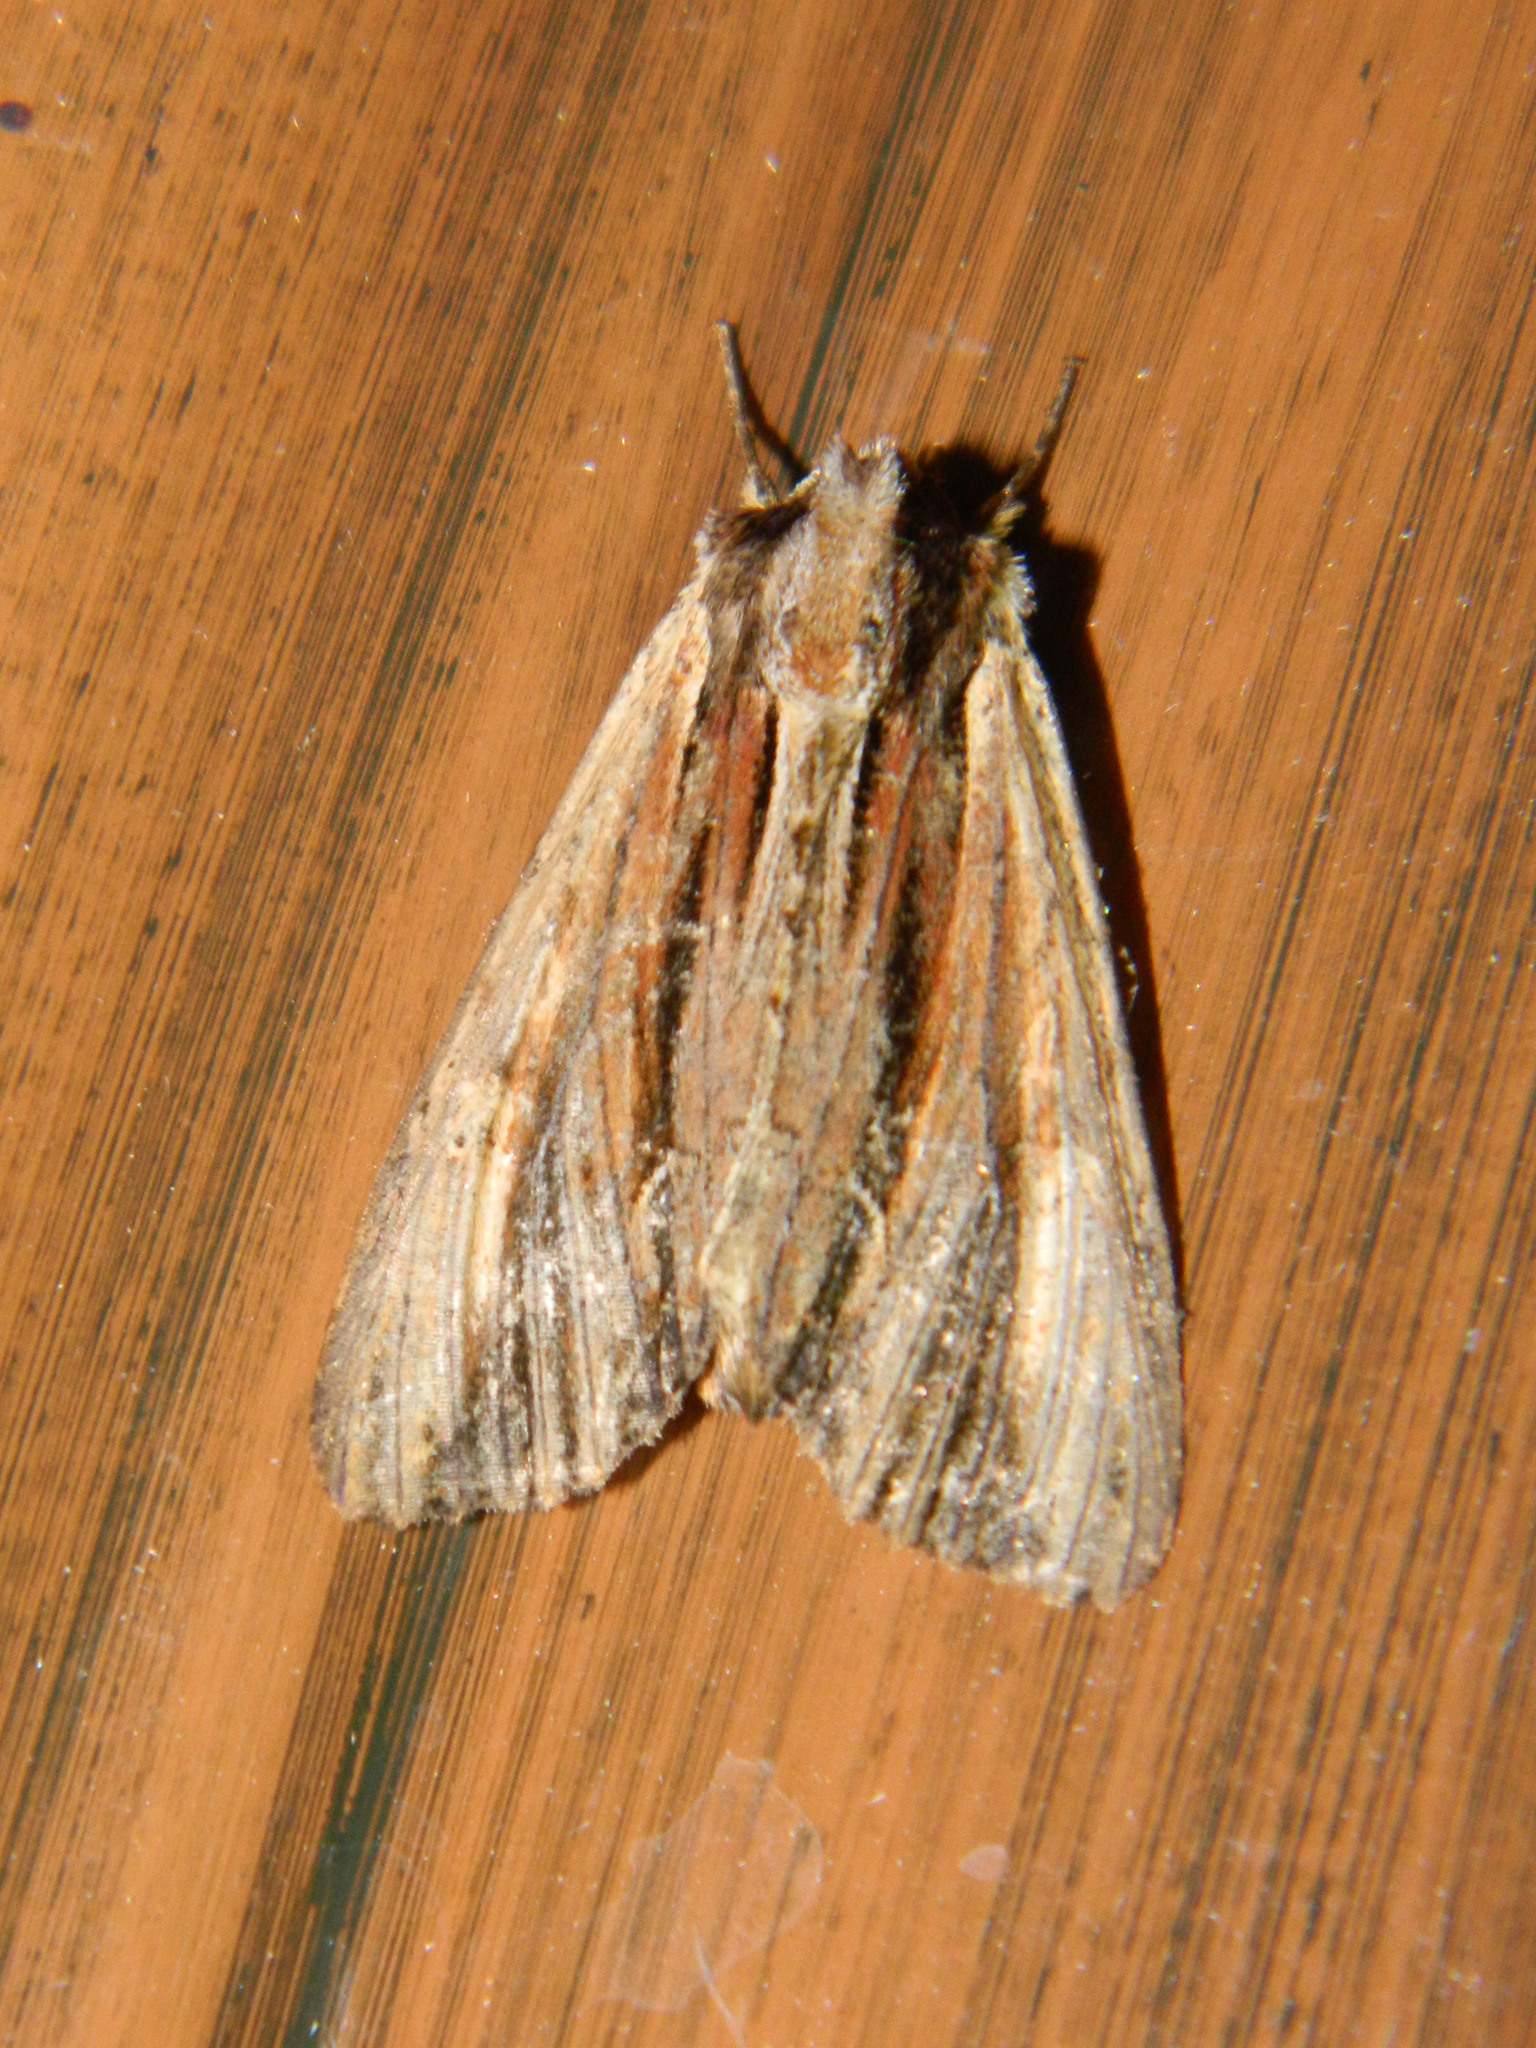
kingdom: Animalia
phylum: Arthropoda
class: Insecta
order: Lepidoptera
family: Noctuidae
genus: Apamea
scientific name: Apamea verbascoides
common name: Mullein apamea moth
